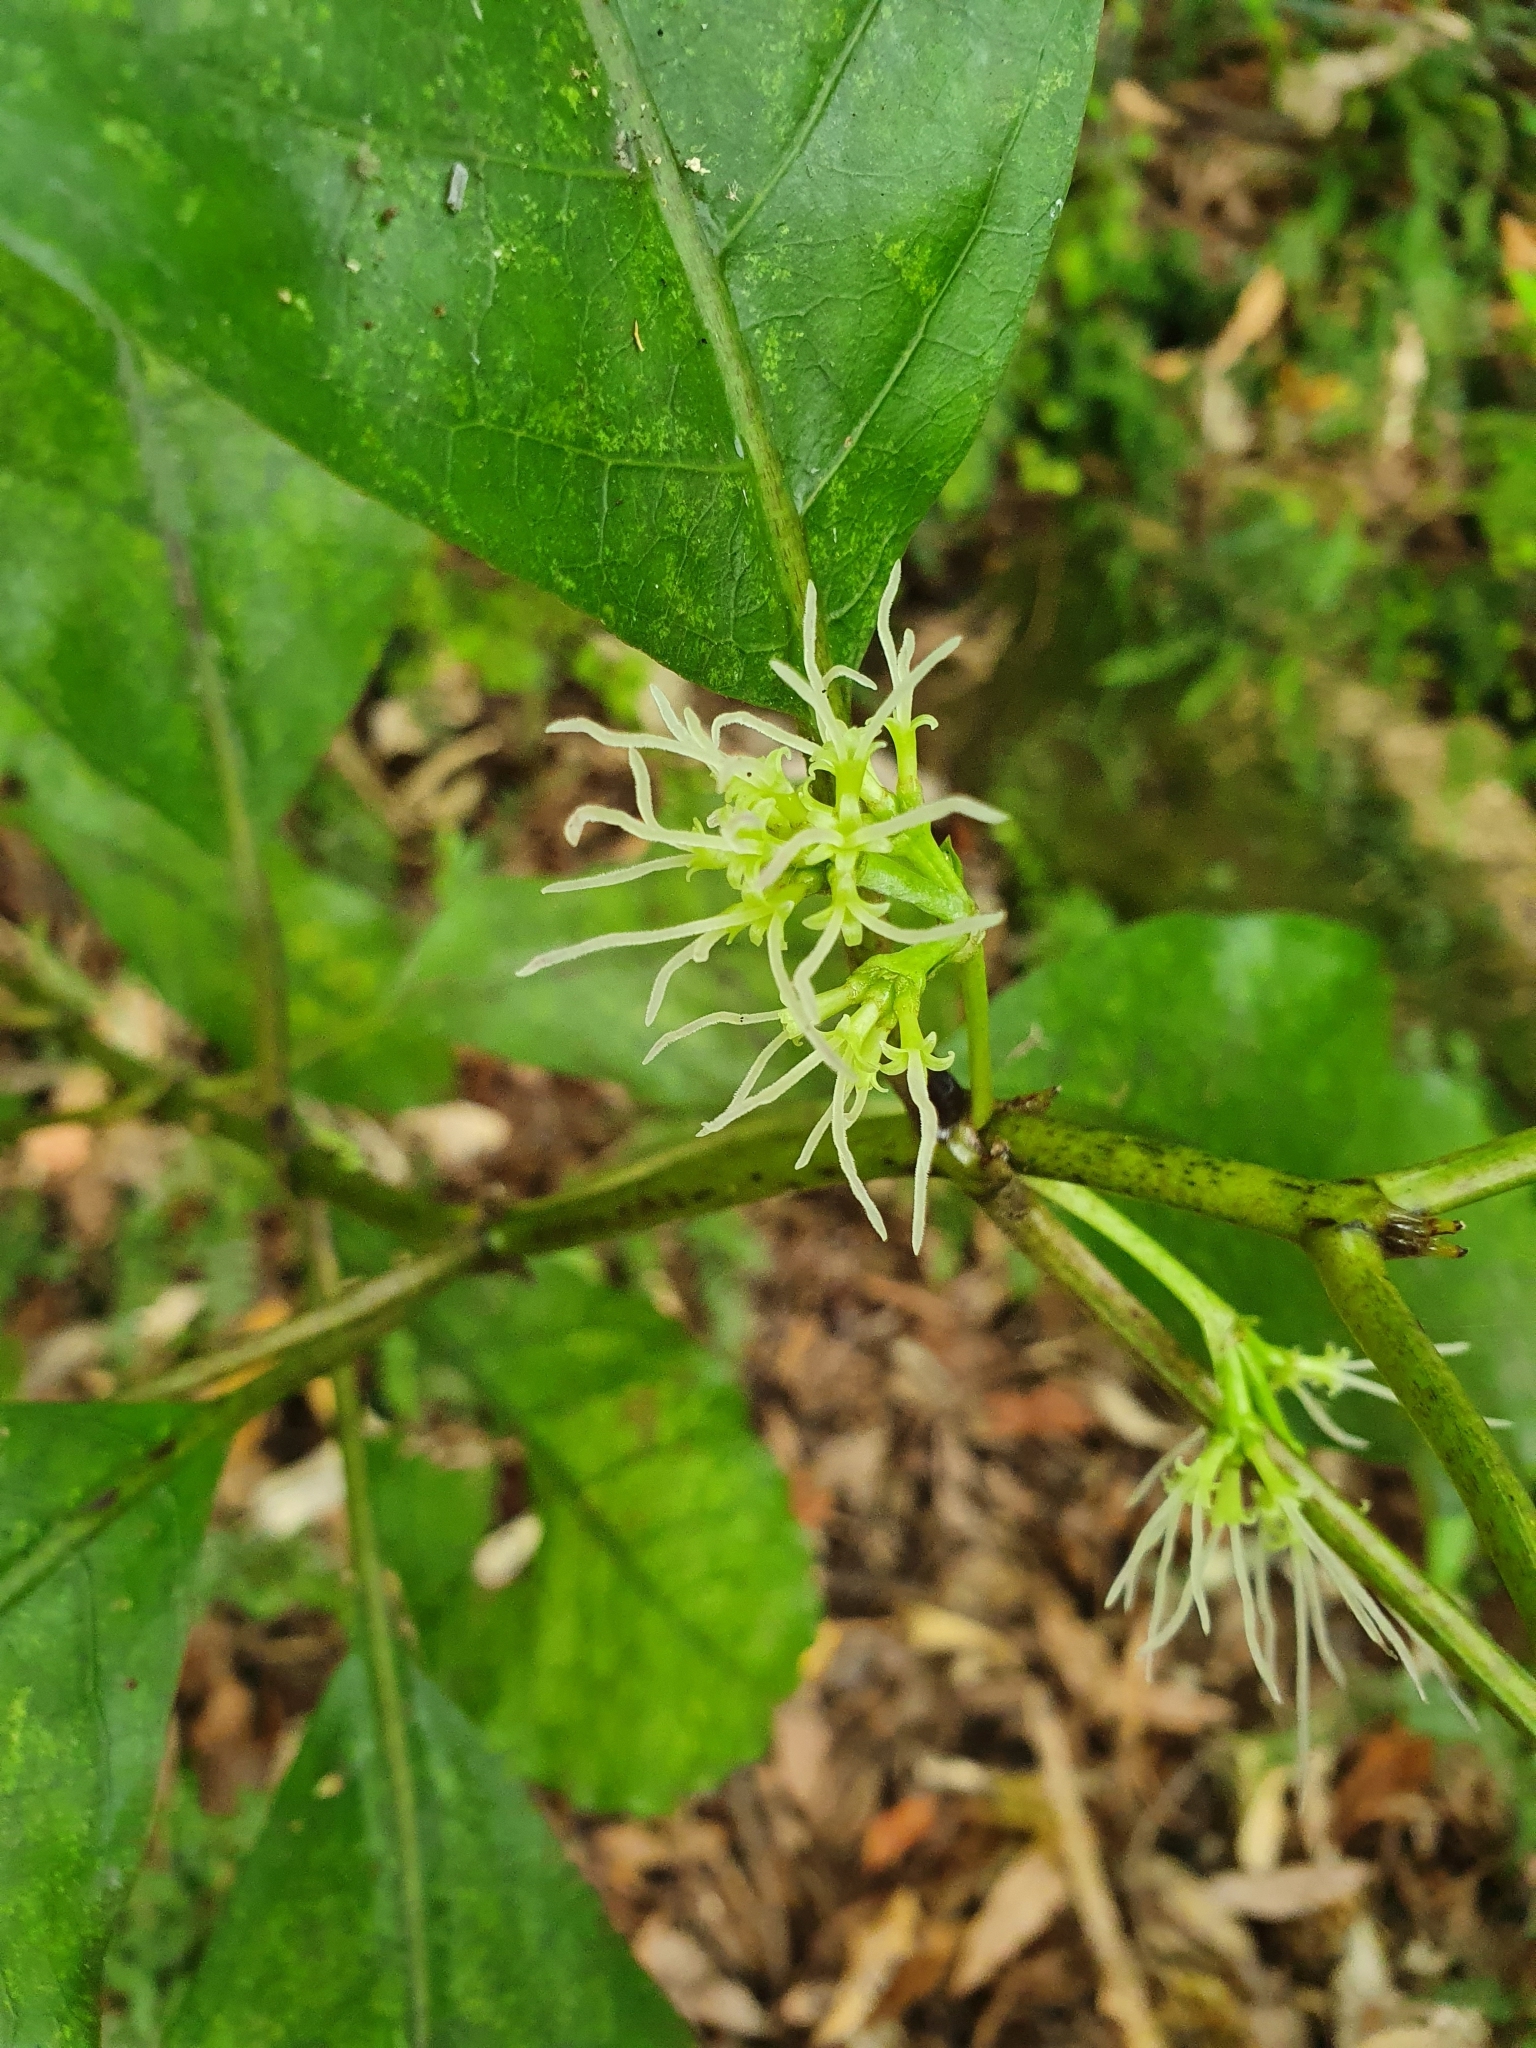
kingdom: Plantae
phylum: Tracheophyta
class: Magnoliopsida
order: Gentianales
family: Rubiaceae
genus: Coprosma
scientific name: Coprosma autumnalis
